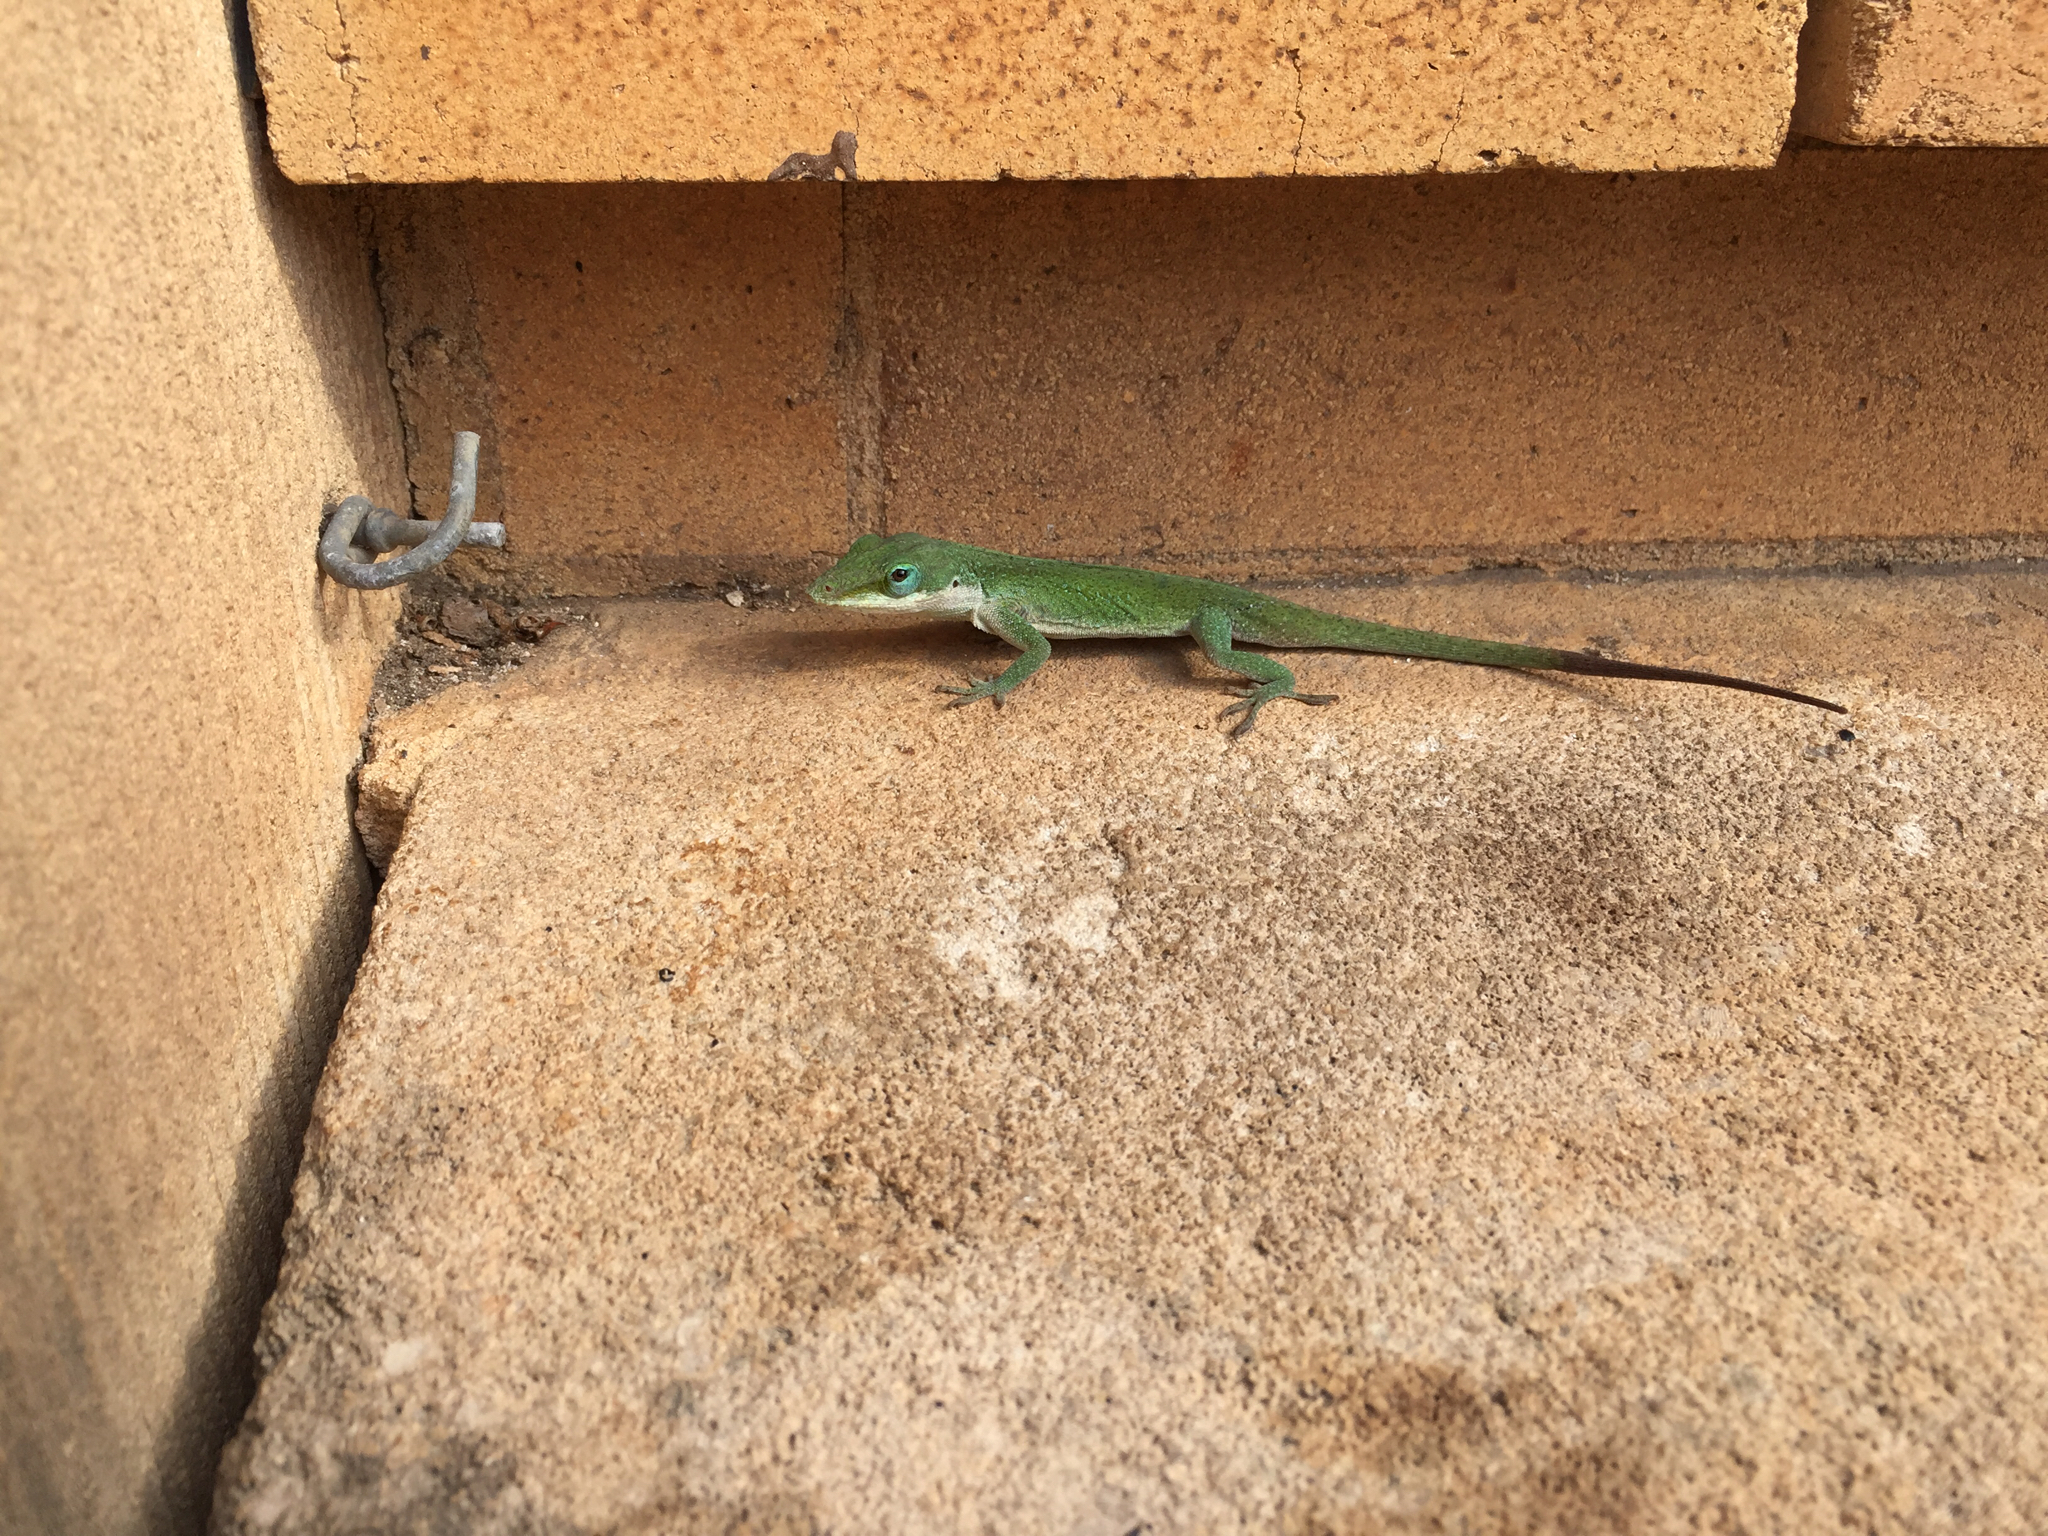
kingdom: Animalia
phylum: Chordata
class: Squamata
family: Dactyloidae
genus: Anolis
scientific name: Anolis carolinensis
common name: Green anole
